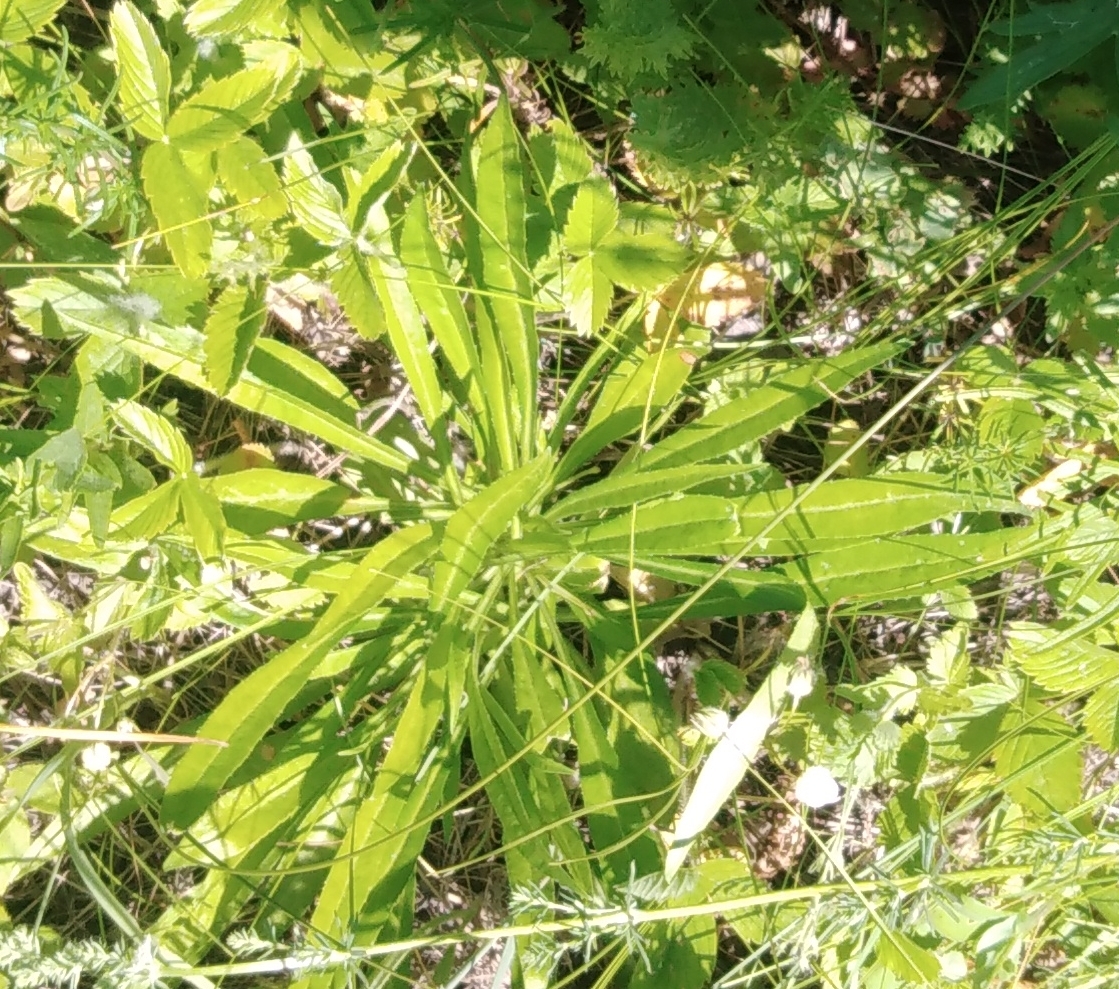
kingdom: Plantae
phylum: Tracheophyta
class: Magnoliopsida
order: Asterales
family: Campanulaceae
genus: Campanula
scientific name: Campanula persicifolia
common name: Peach-leaved bellflower
